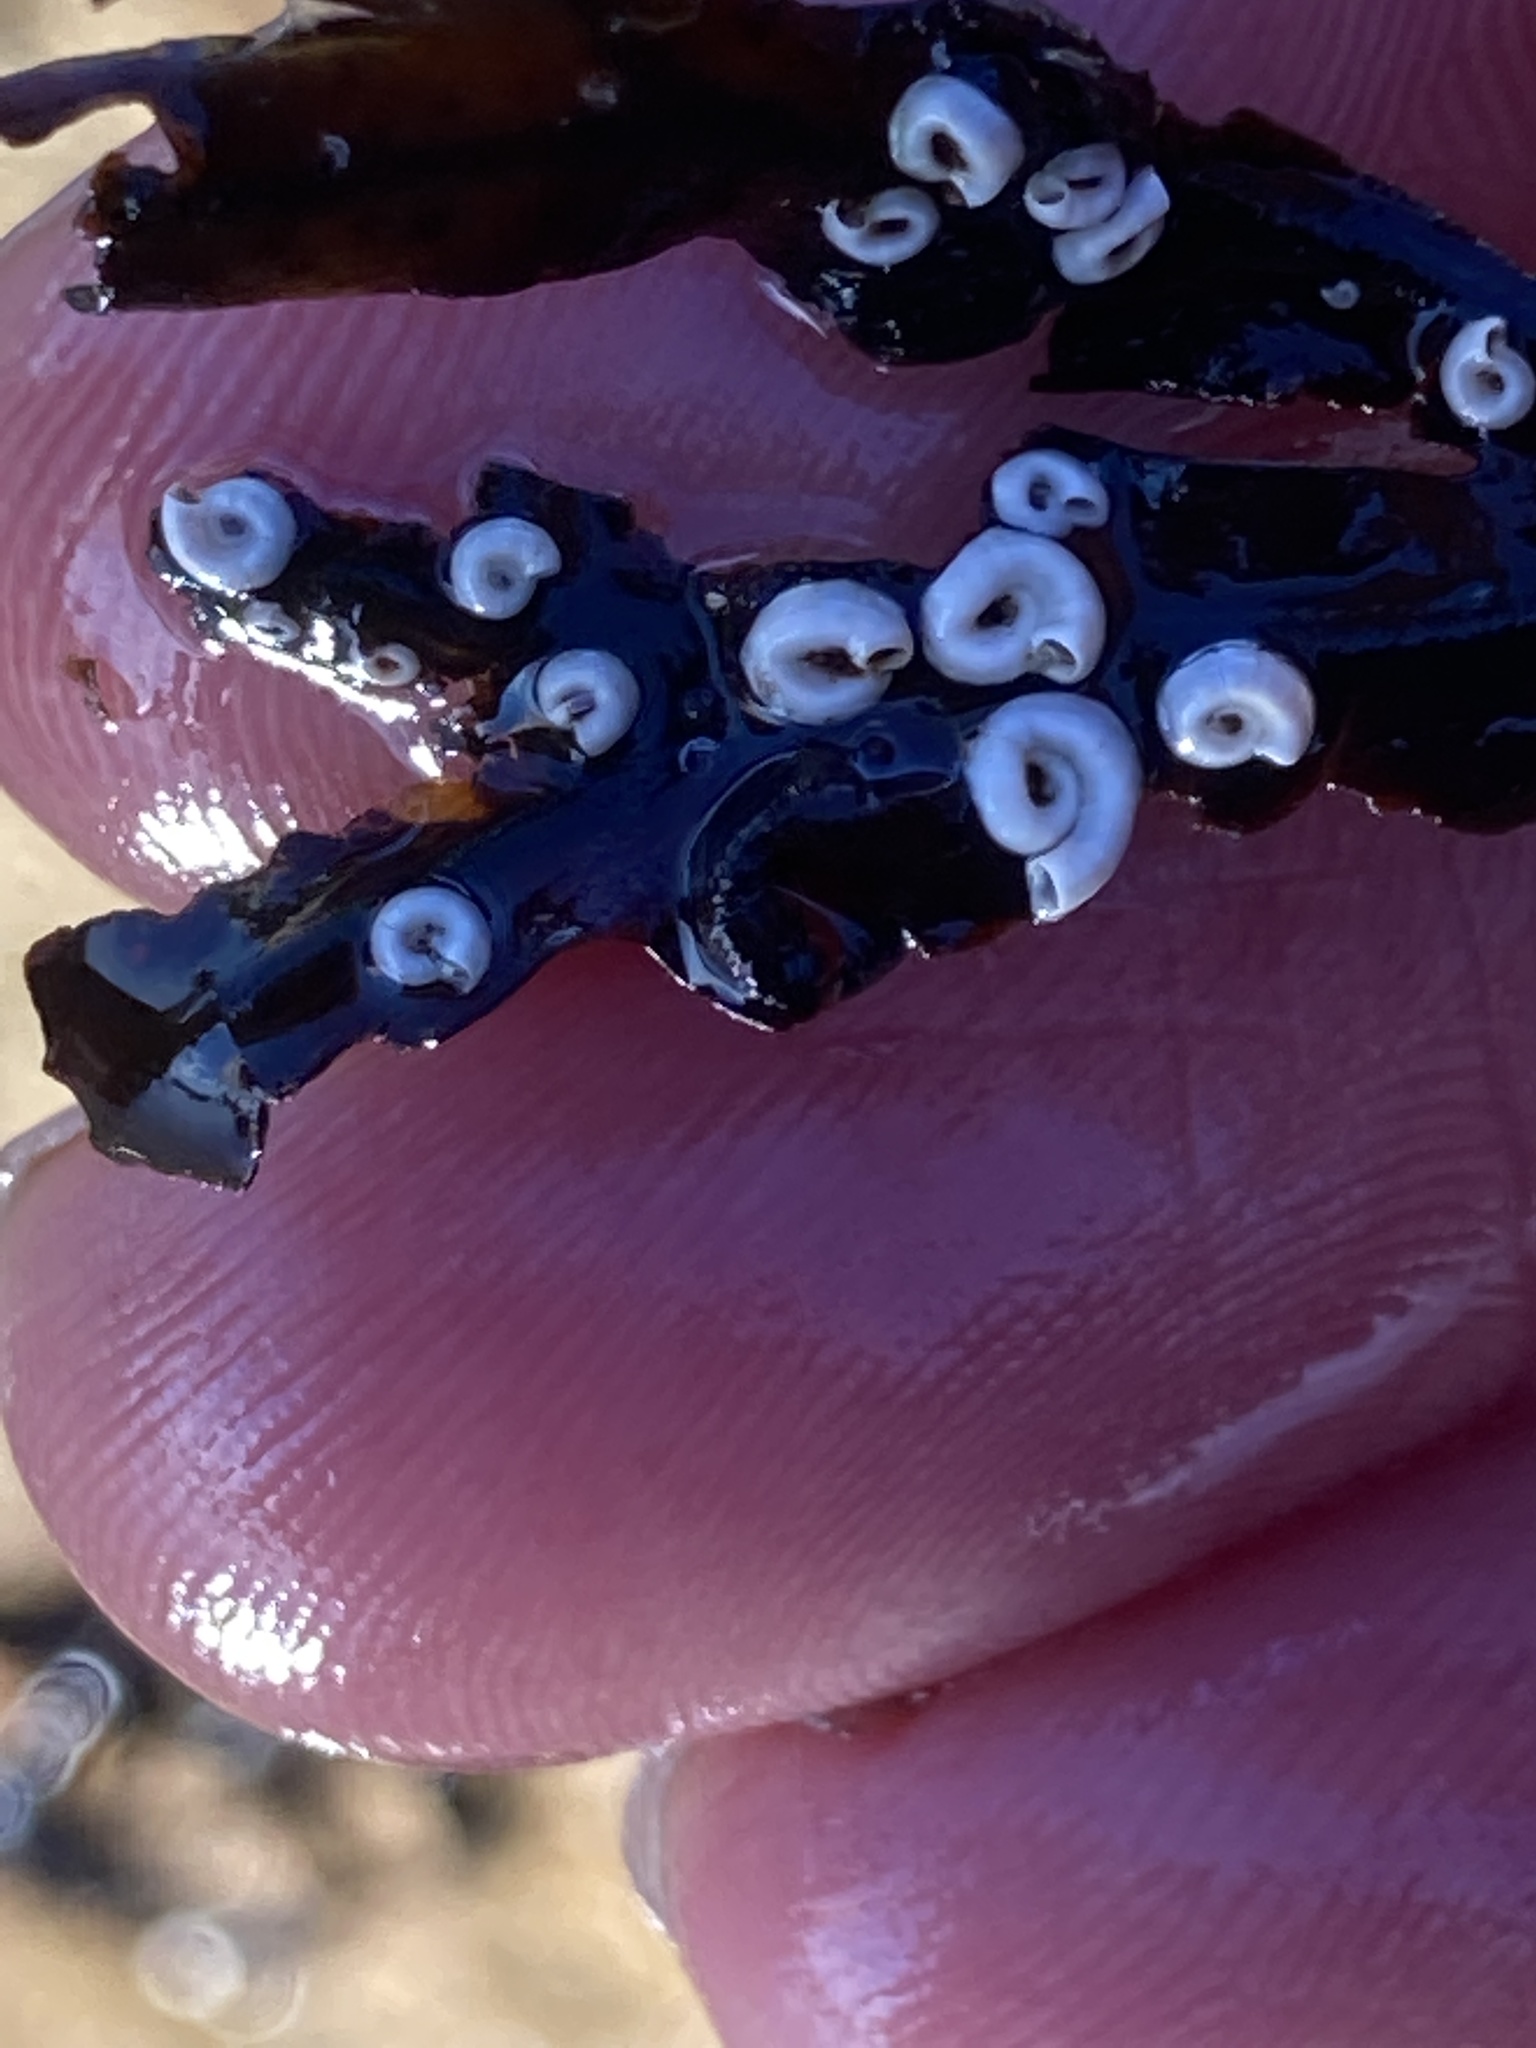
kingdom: Animalia
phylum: Annelida
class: Polychaeta
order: Sabellida
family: Serpulidae
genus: Spirorbis
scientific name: Spirorbis spirorbis
